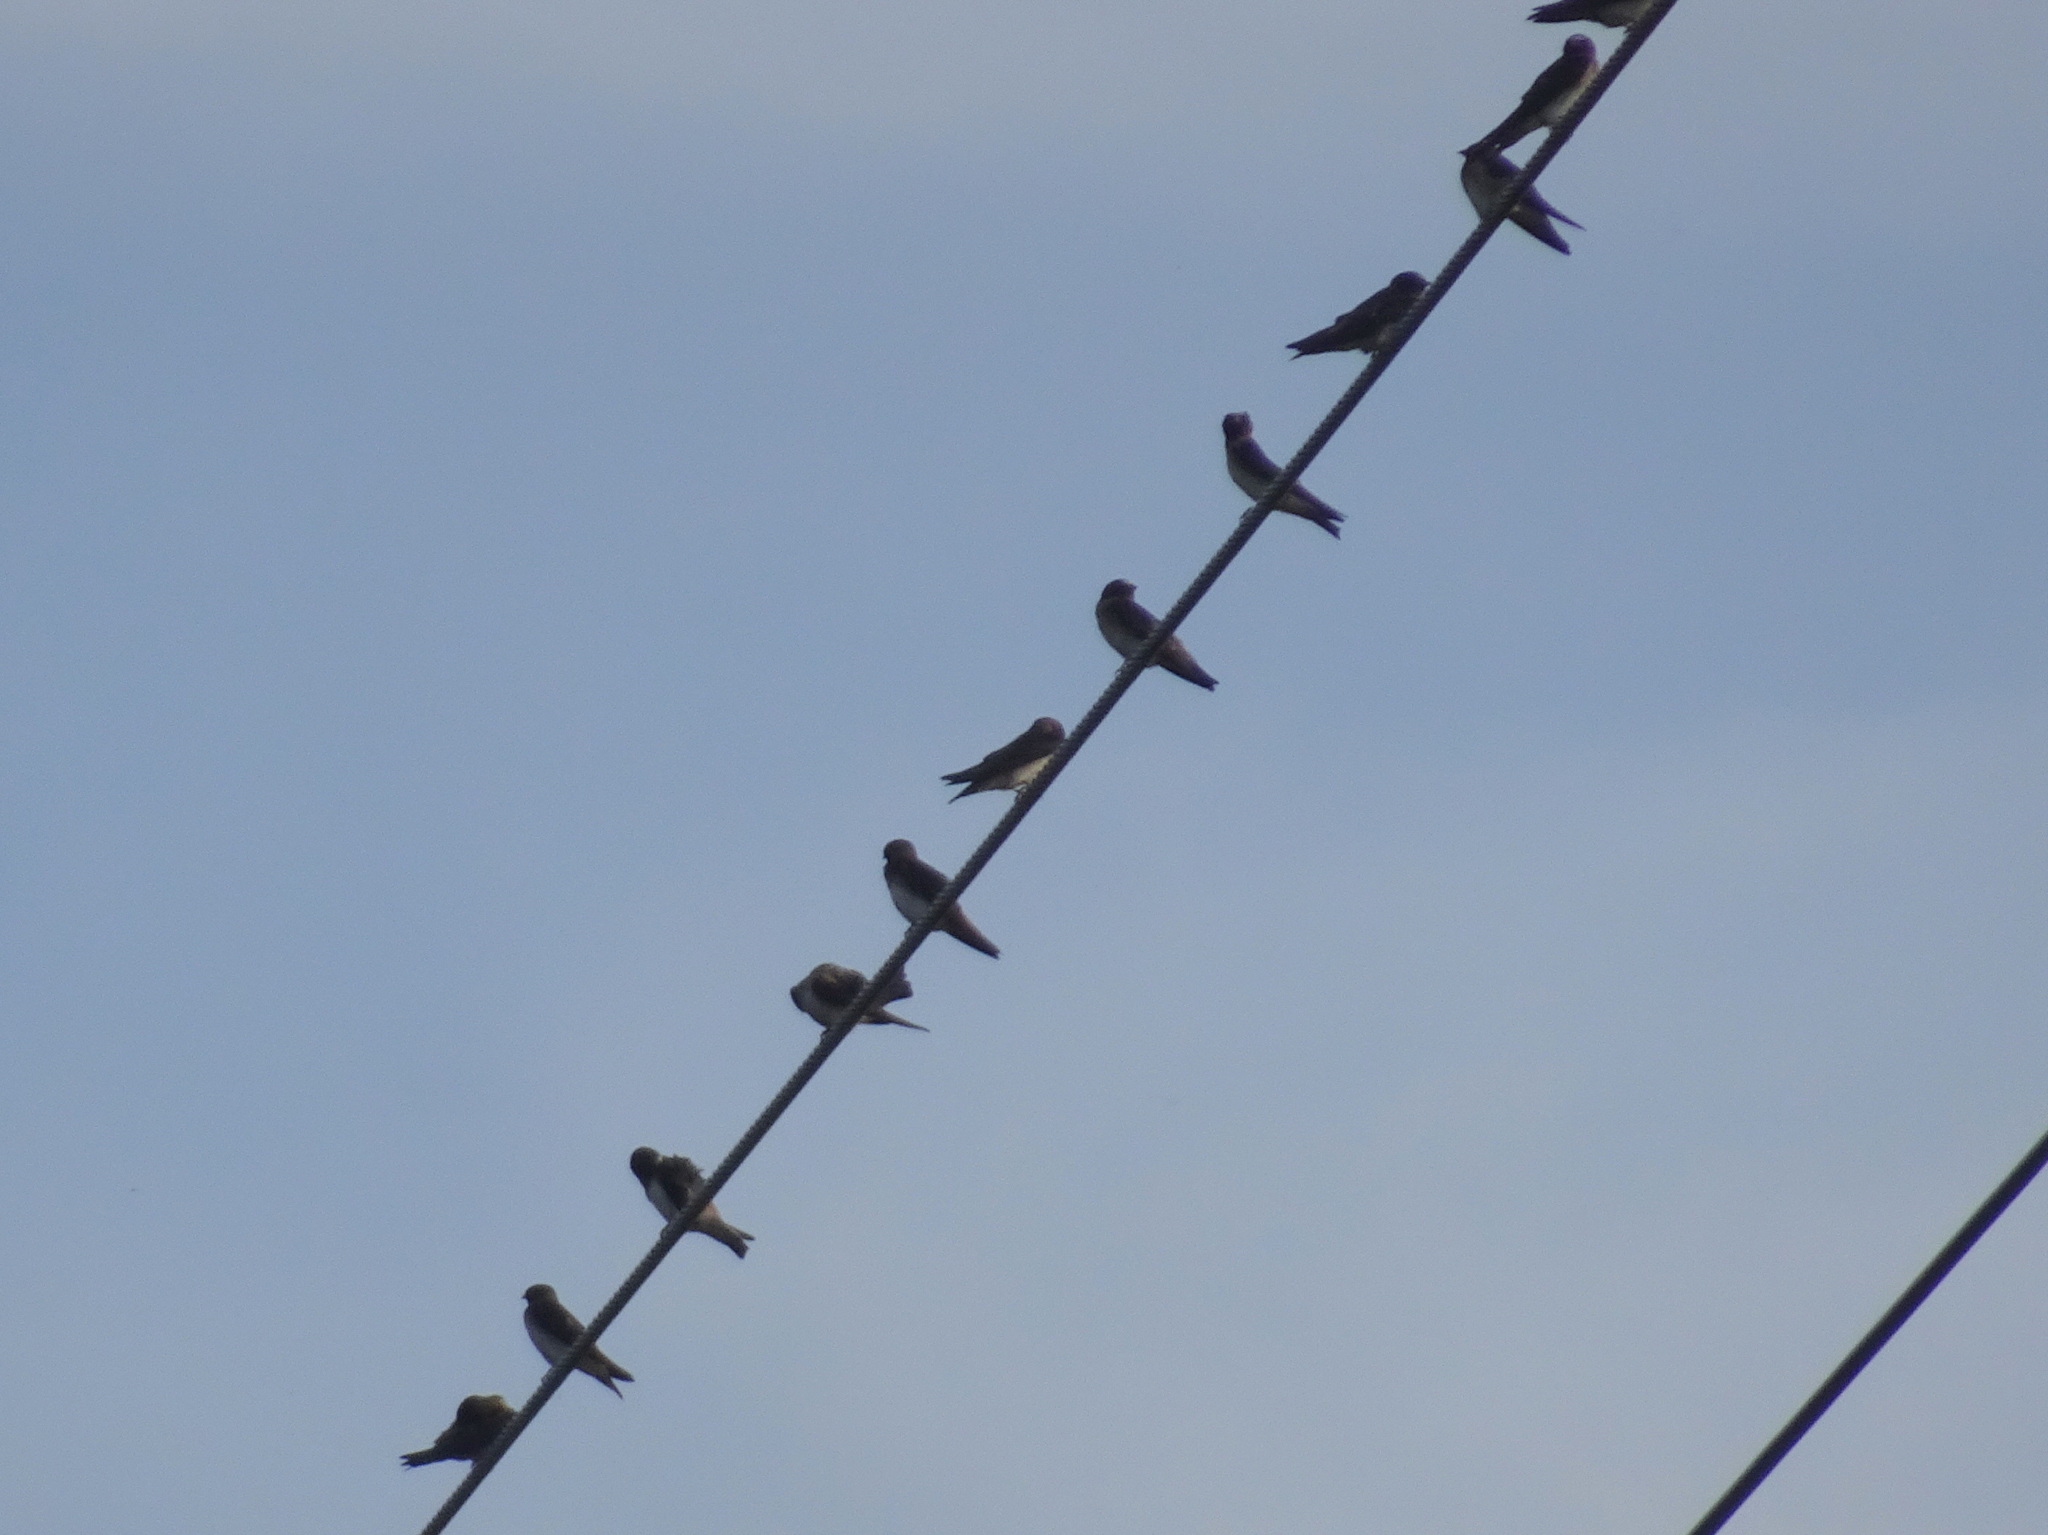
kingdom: Animalia
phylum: Chordata
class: Aves
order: Passeriformes
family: Hirundinidae
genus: Petrochelidon
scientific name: Petrochelidon pyrrhonota
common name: American cliff swallow
